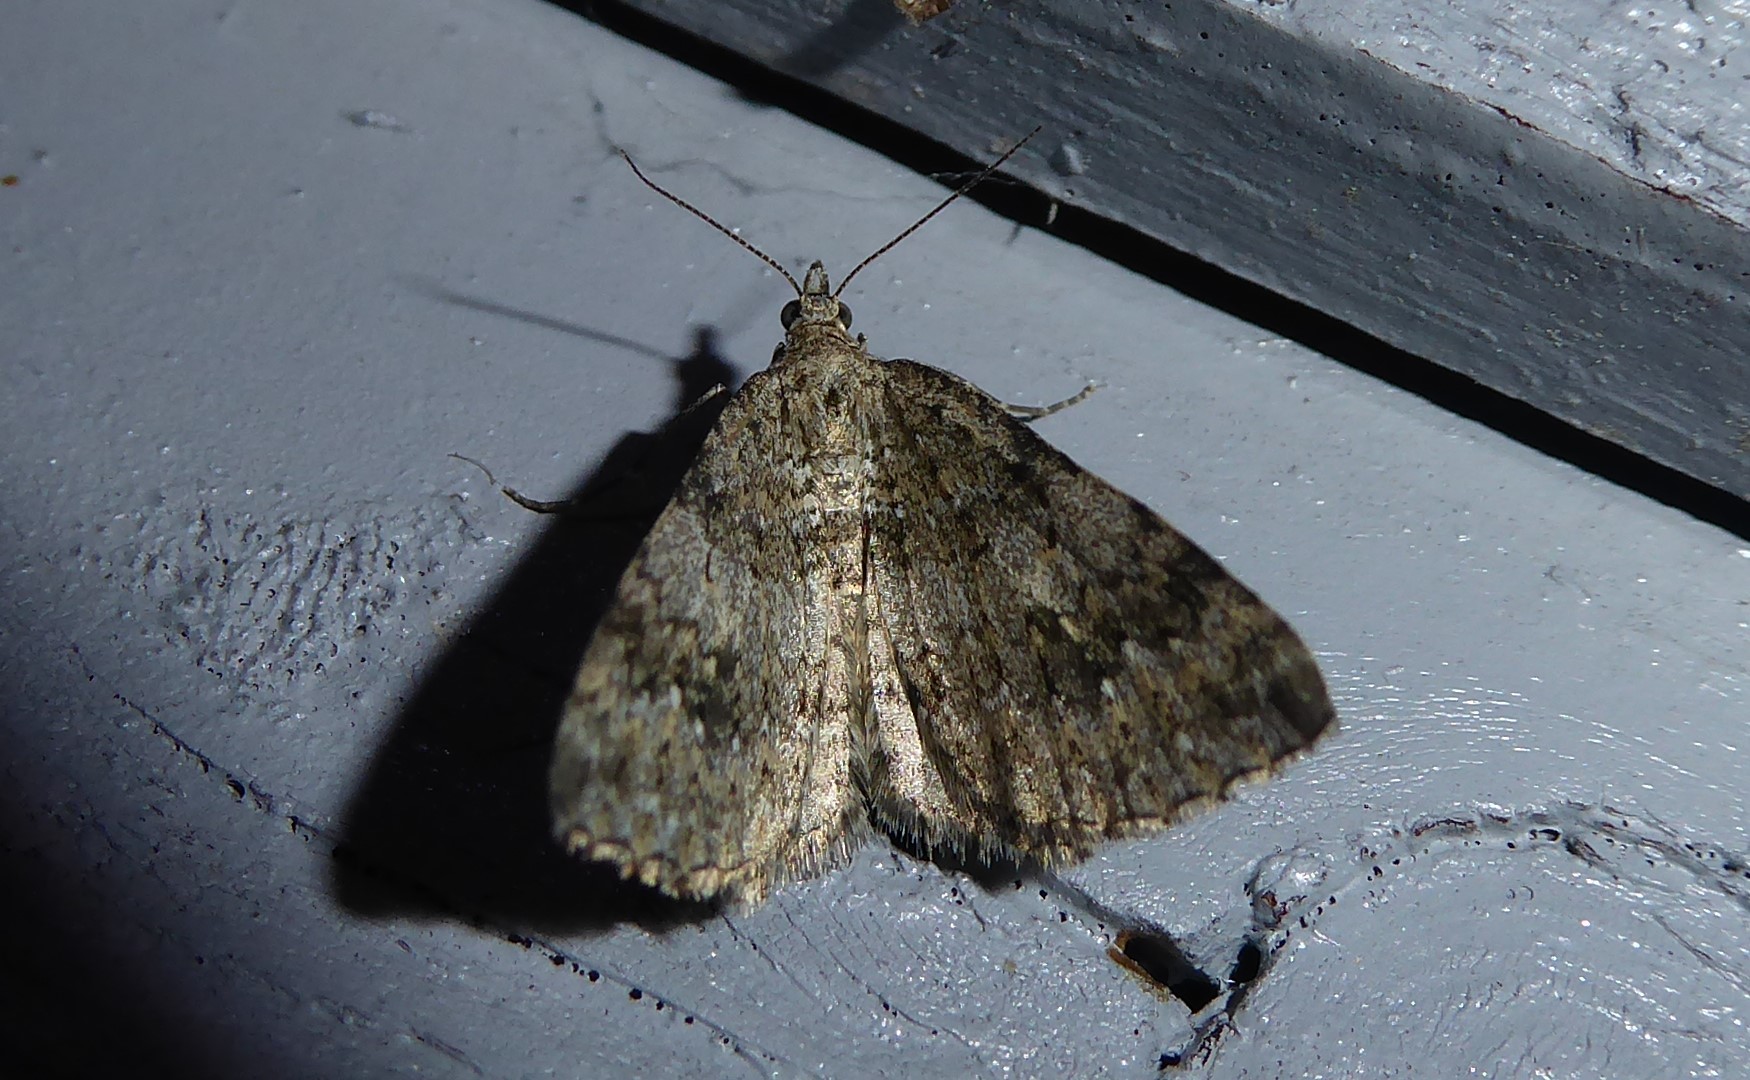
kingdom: Animalia
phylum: Arthropoda
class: Insecta
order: Lepidoptera
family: Geometridae
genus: Helastia
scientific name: Helastia corcularia
